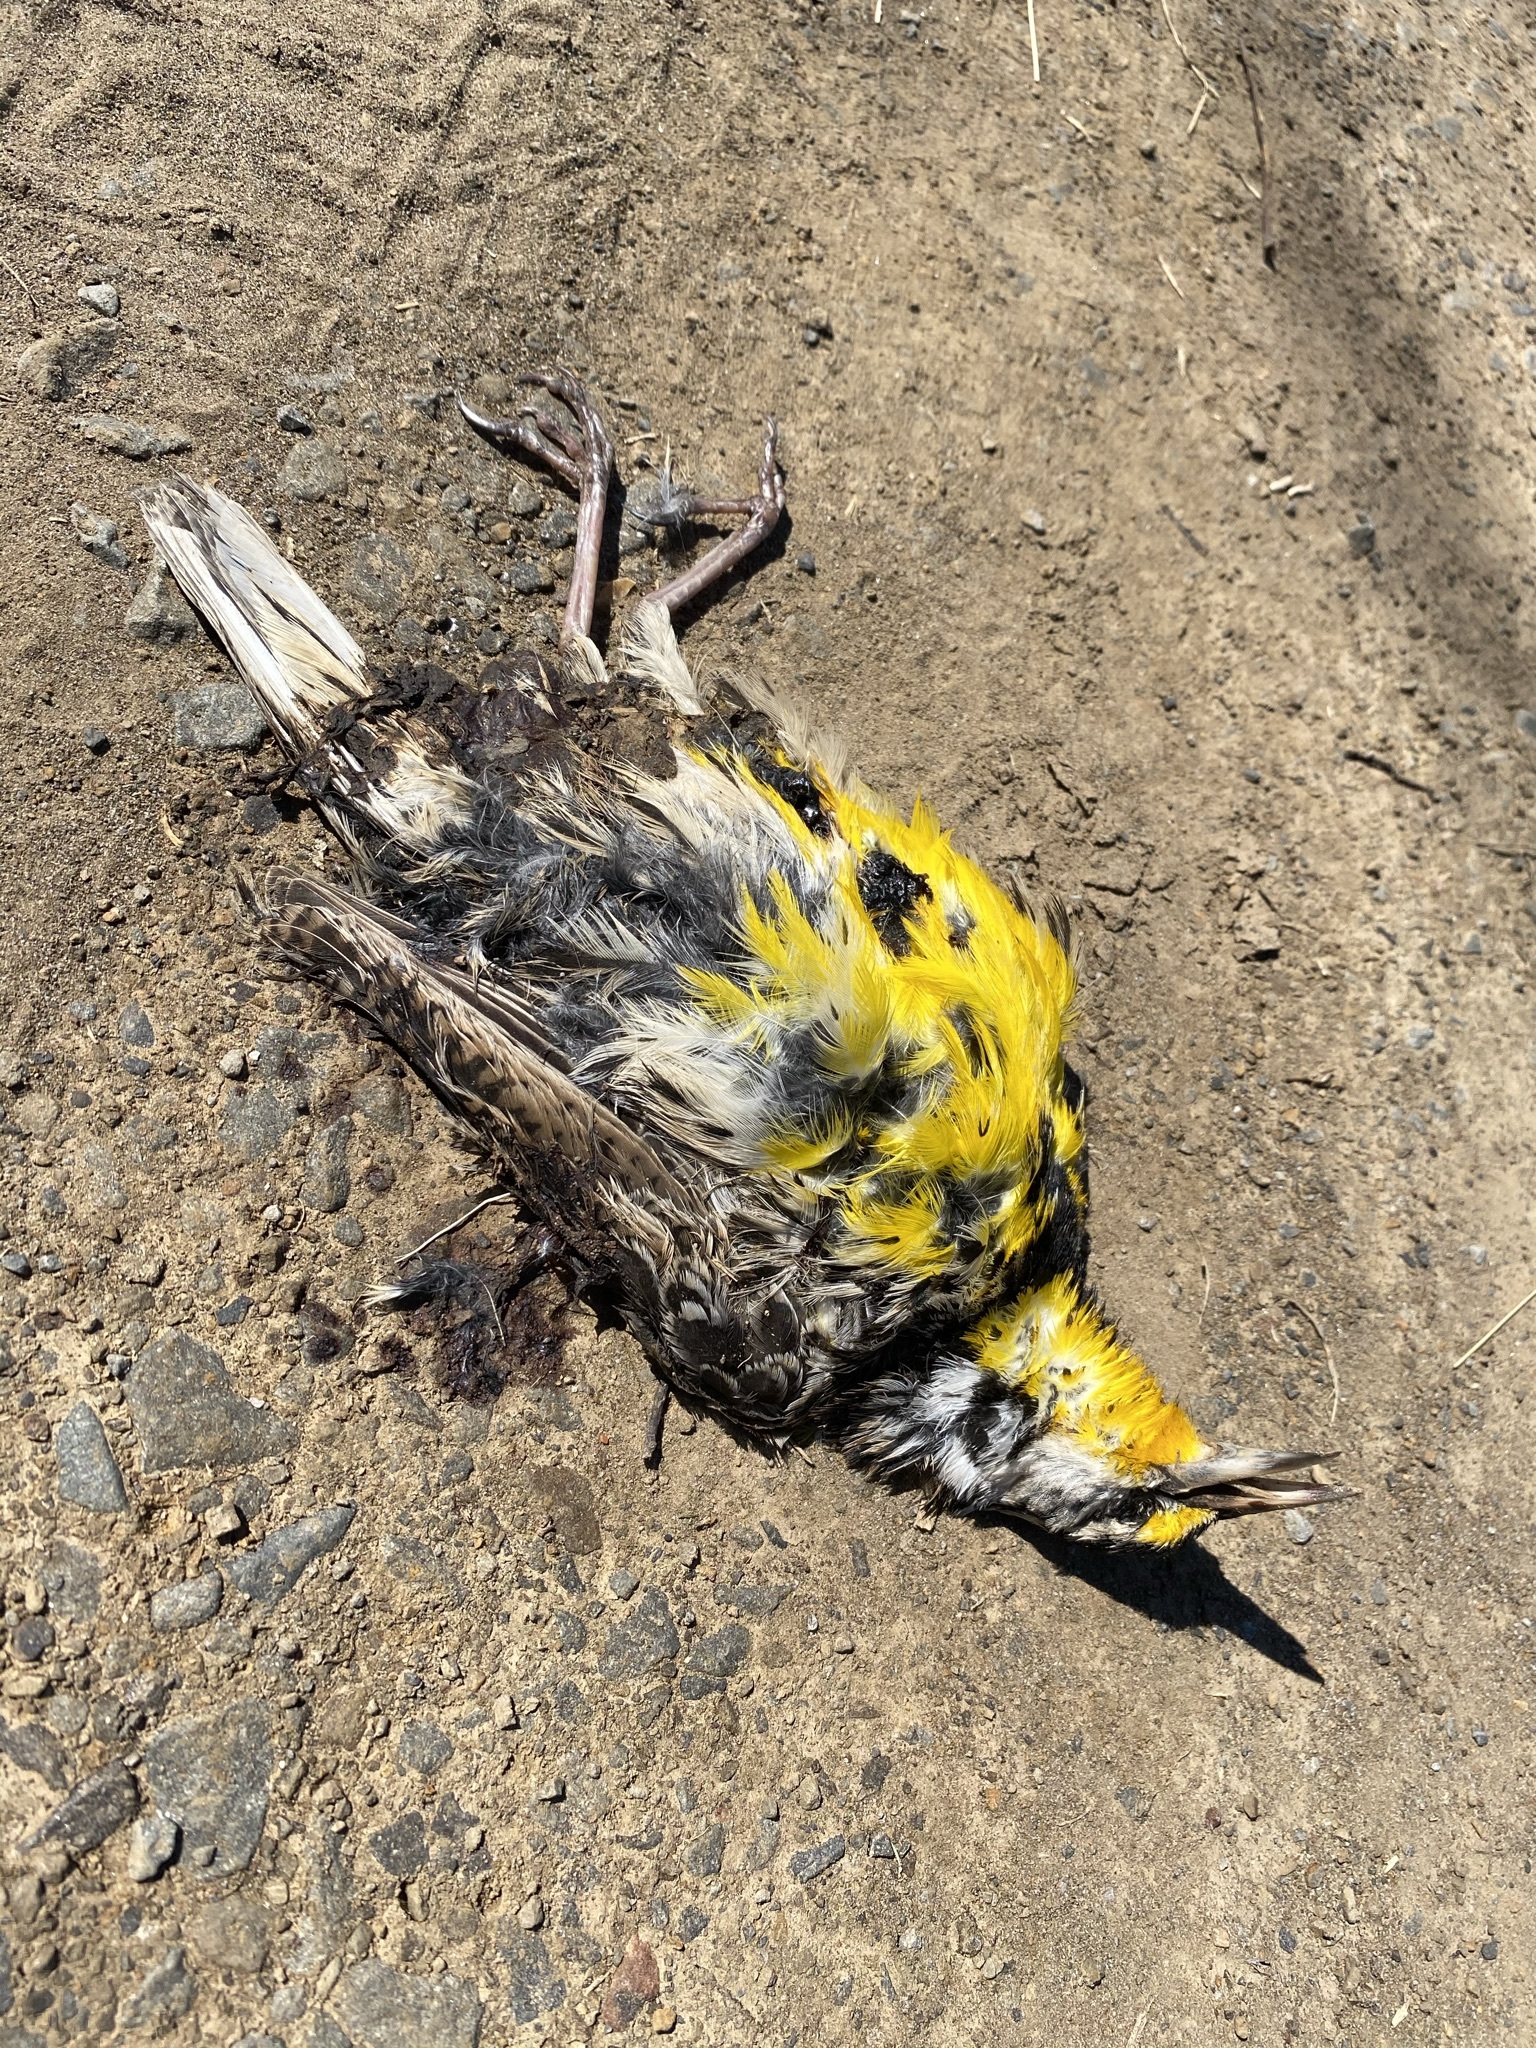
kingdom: Animalia
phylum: Chordata
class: Aves
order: Passeriformes
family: Icteridae
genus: Sturnella
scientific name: Sturnella magna
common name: Eastern meadowlark
